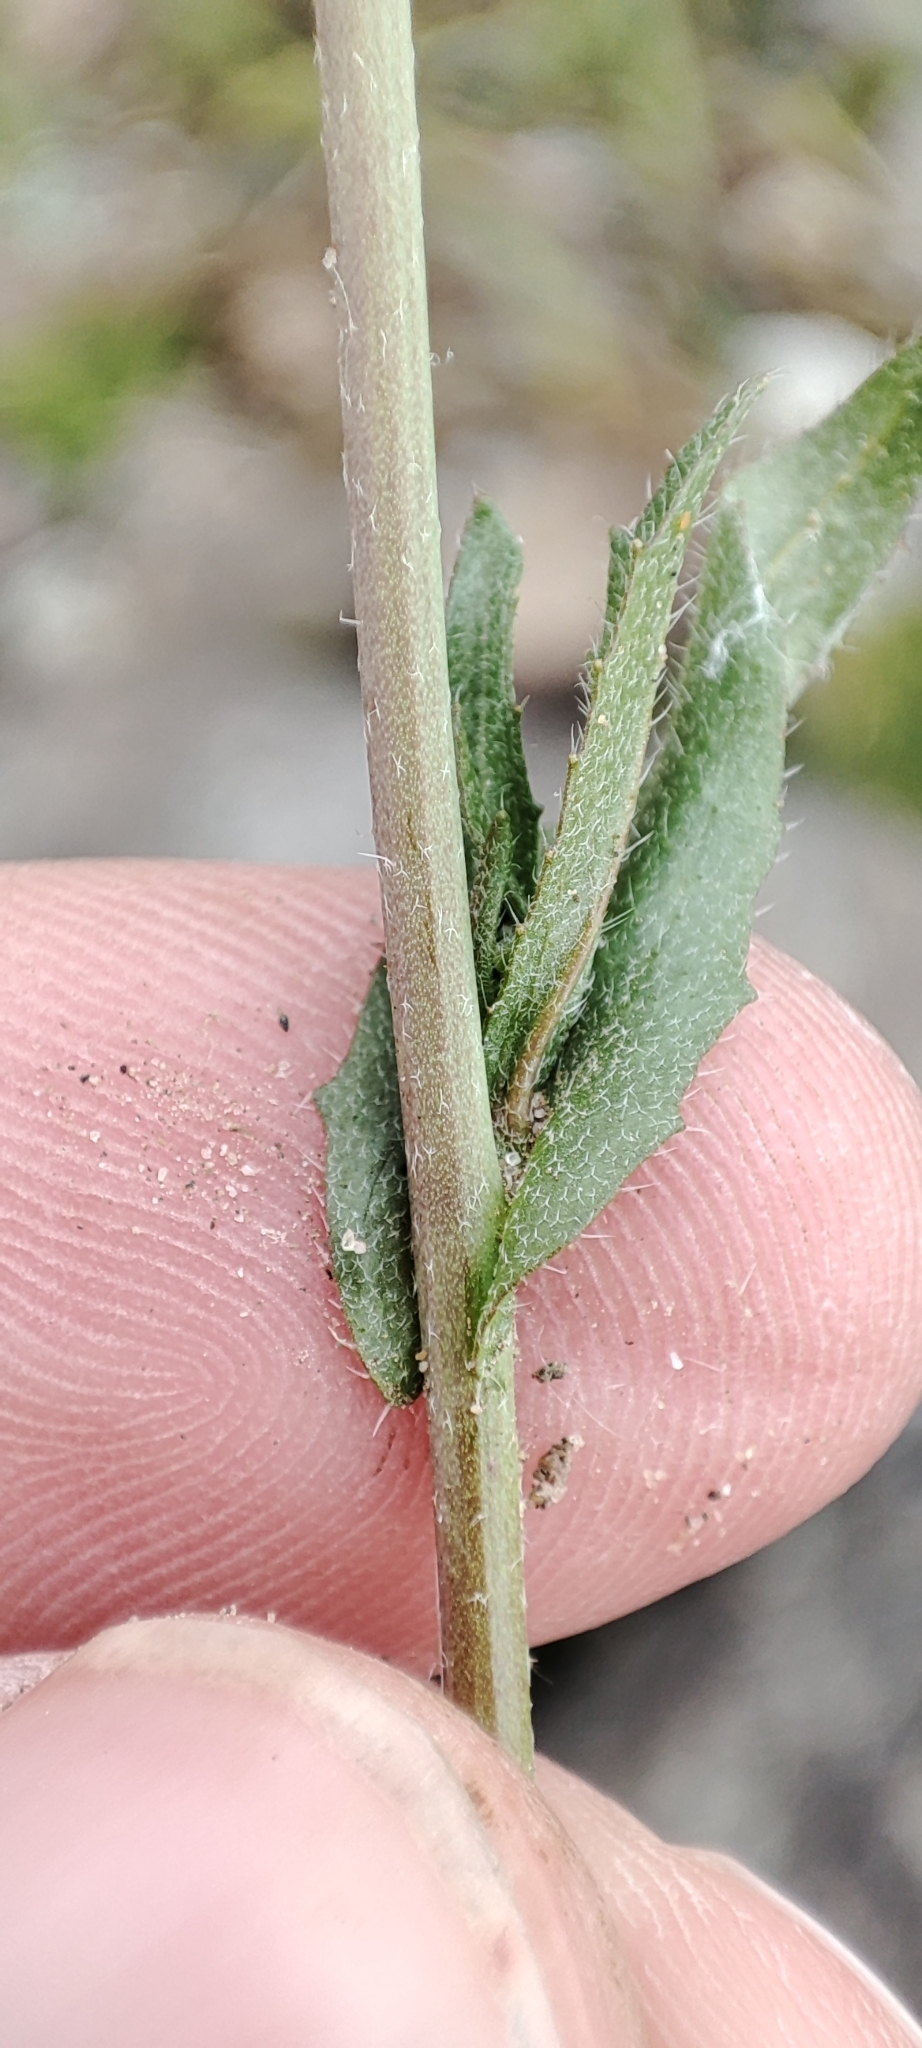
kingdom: Plantae
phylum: Tracheophyta
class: Magnoliopsida
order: Brassicales
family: Brassicaceae
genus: Capsella
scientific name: Capsella bursa-pastoris
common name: Shepherd's purse
